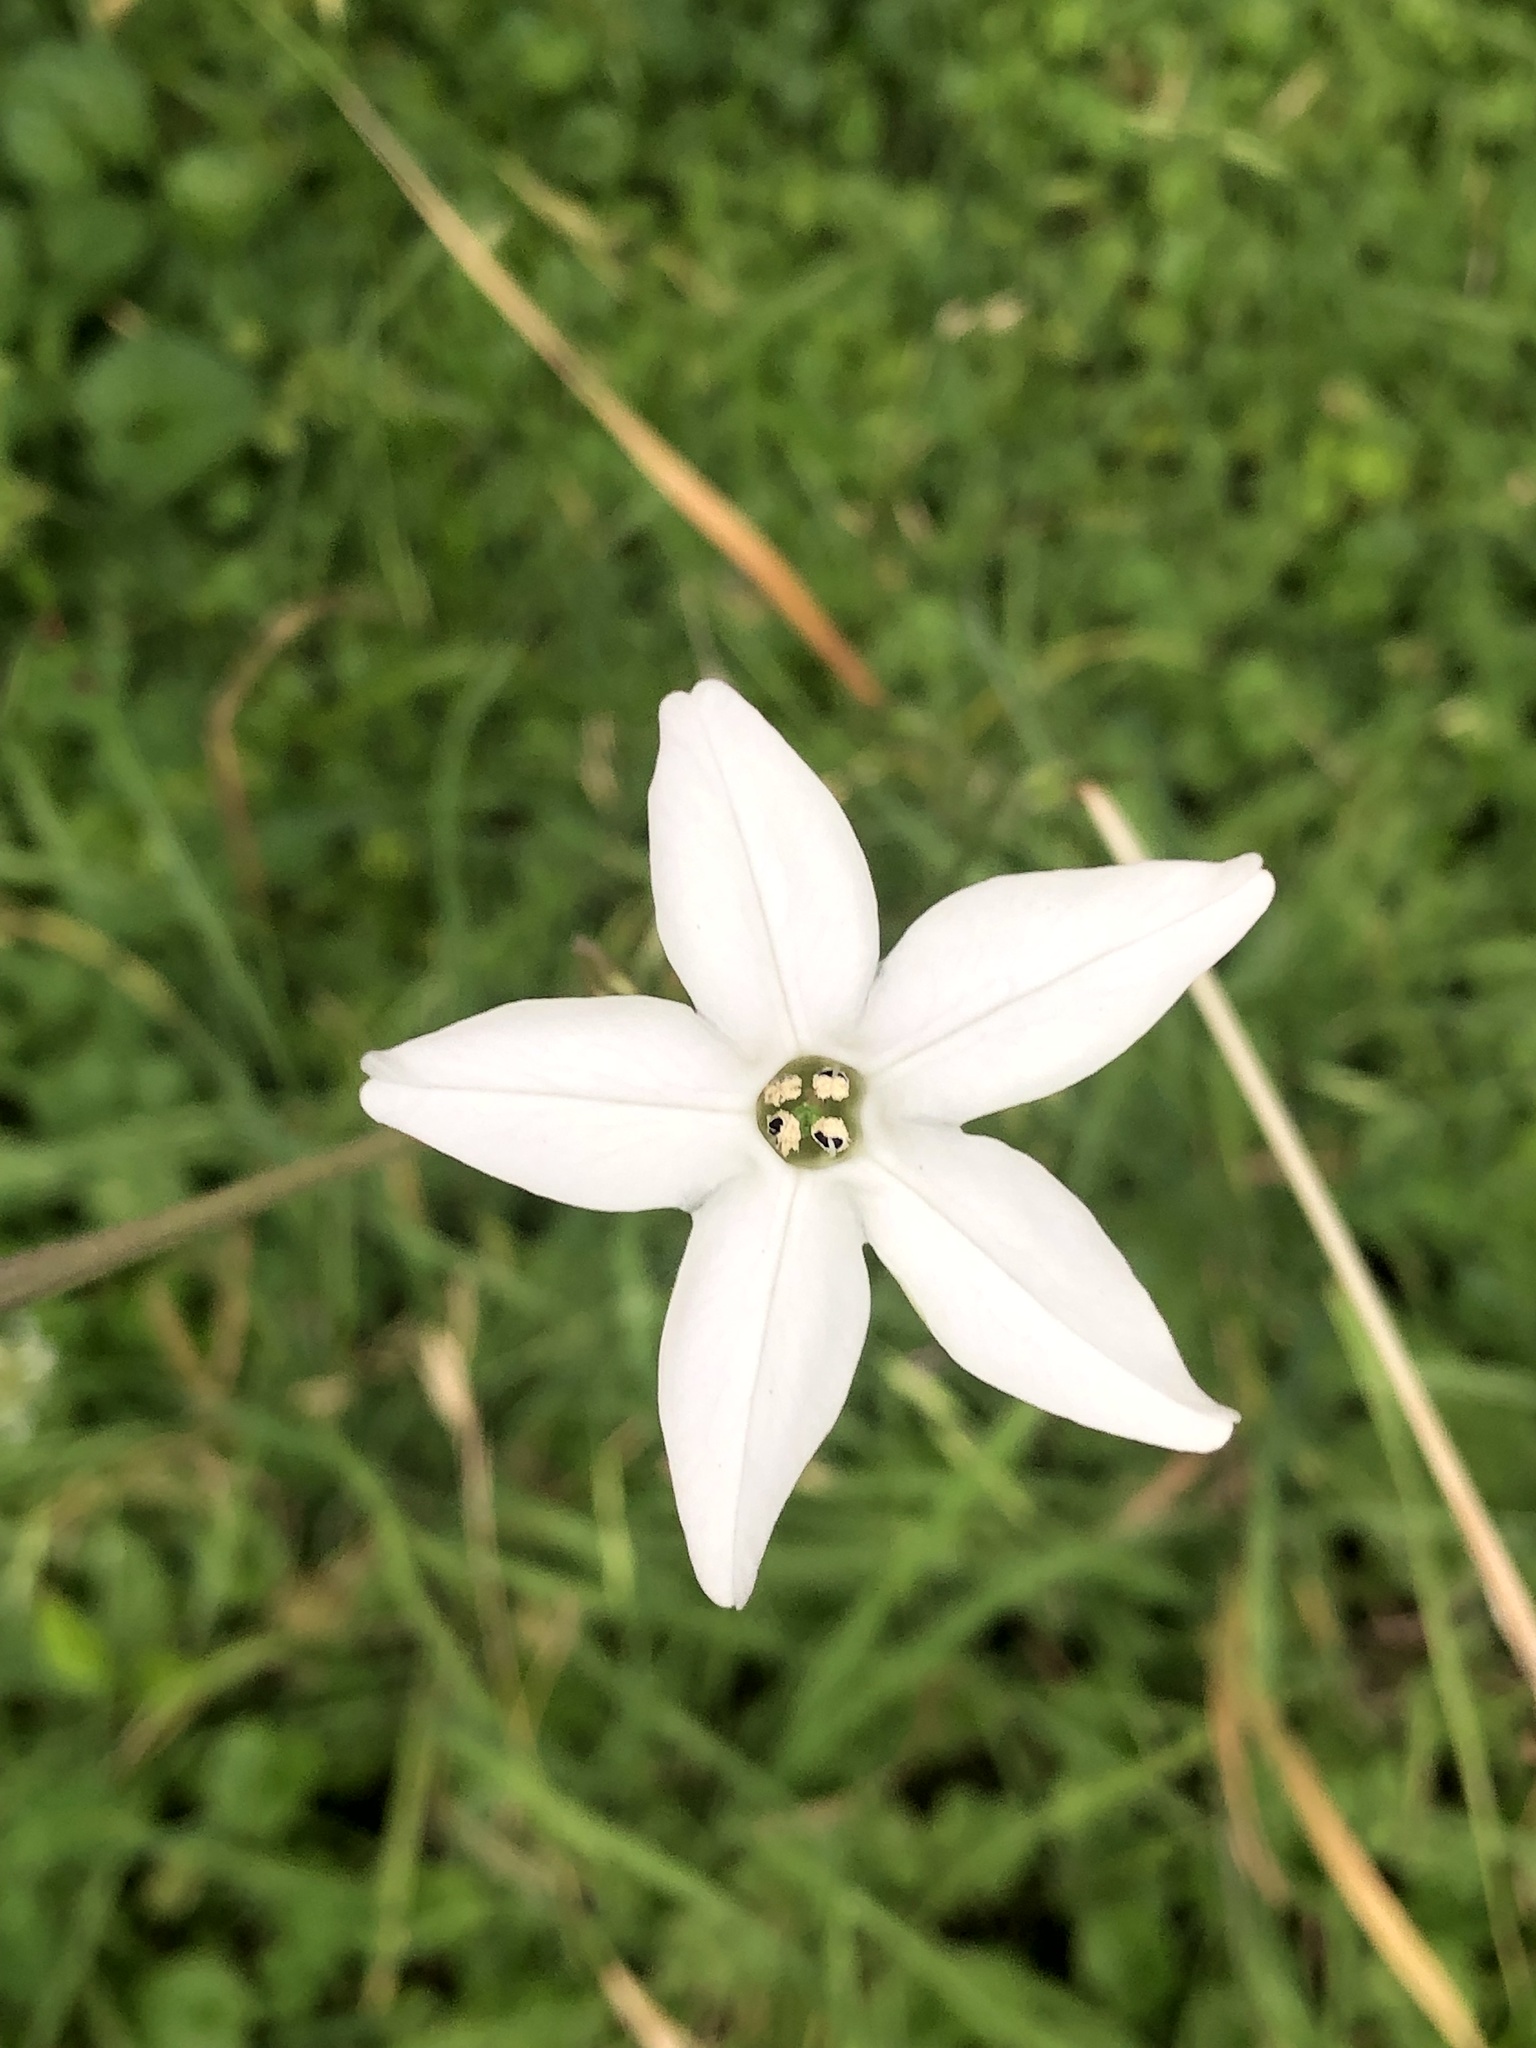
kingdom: Plantae
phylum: Tracheophyta
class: Magnoliopsida
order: Solanales
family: Solanaceae
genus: Nicotiana
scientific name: Nicotiana longiflora
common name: Long-flowered tobacco
